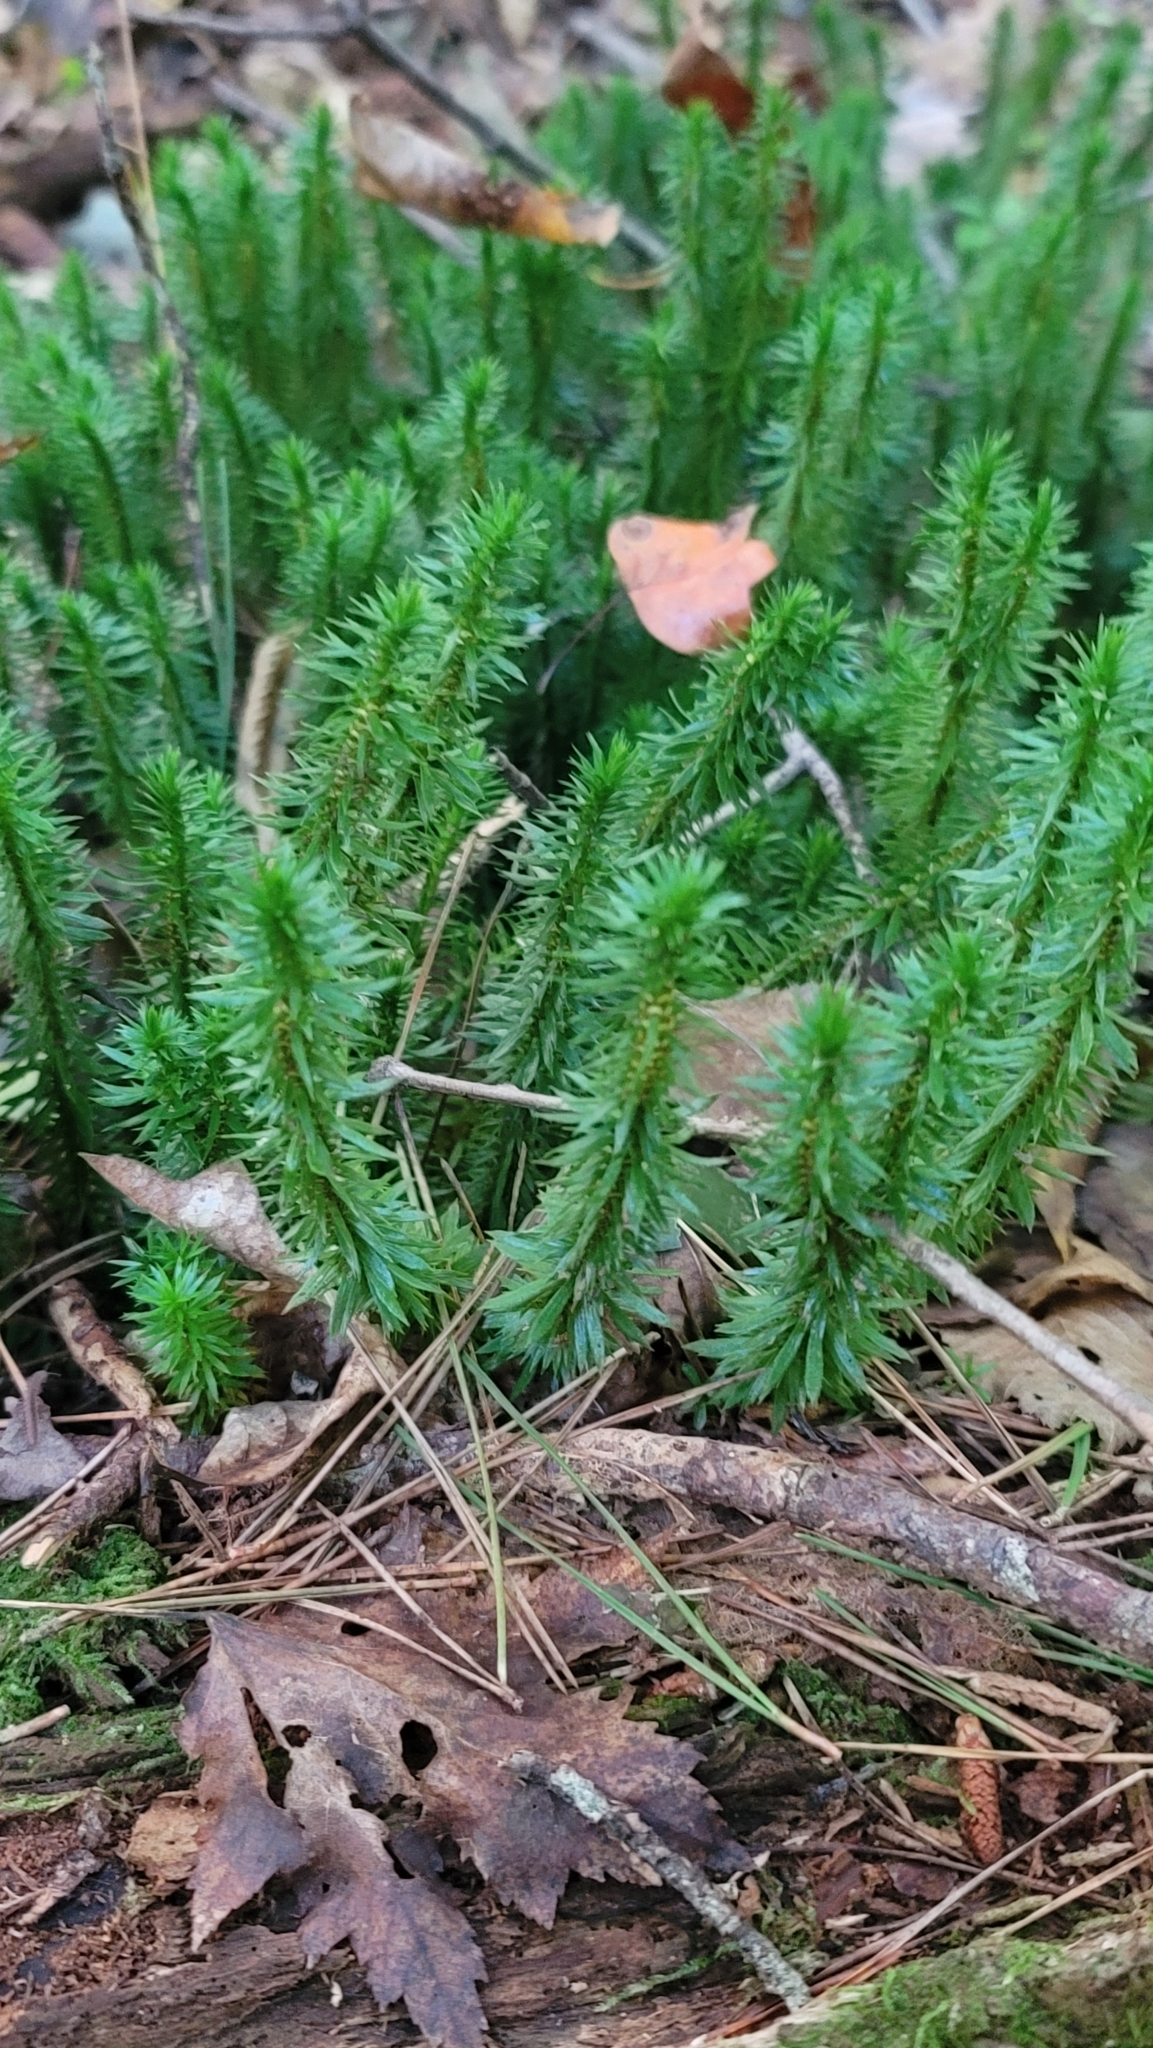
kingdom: Plantae
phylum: Tracheophyta
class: Lycopodiopsida
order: Lycopodiales
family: Lycopodiaceae
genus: Huperzia
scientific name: Huperzia lucidula
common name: Shining clubmoss
